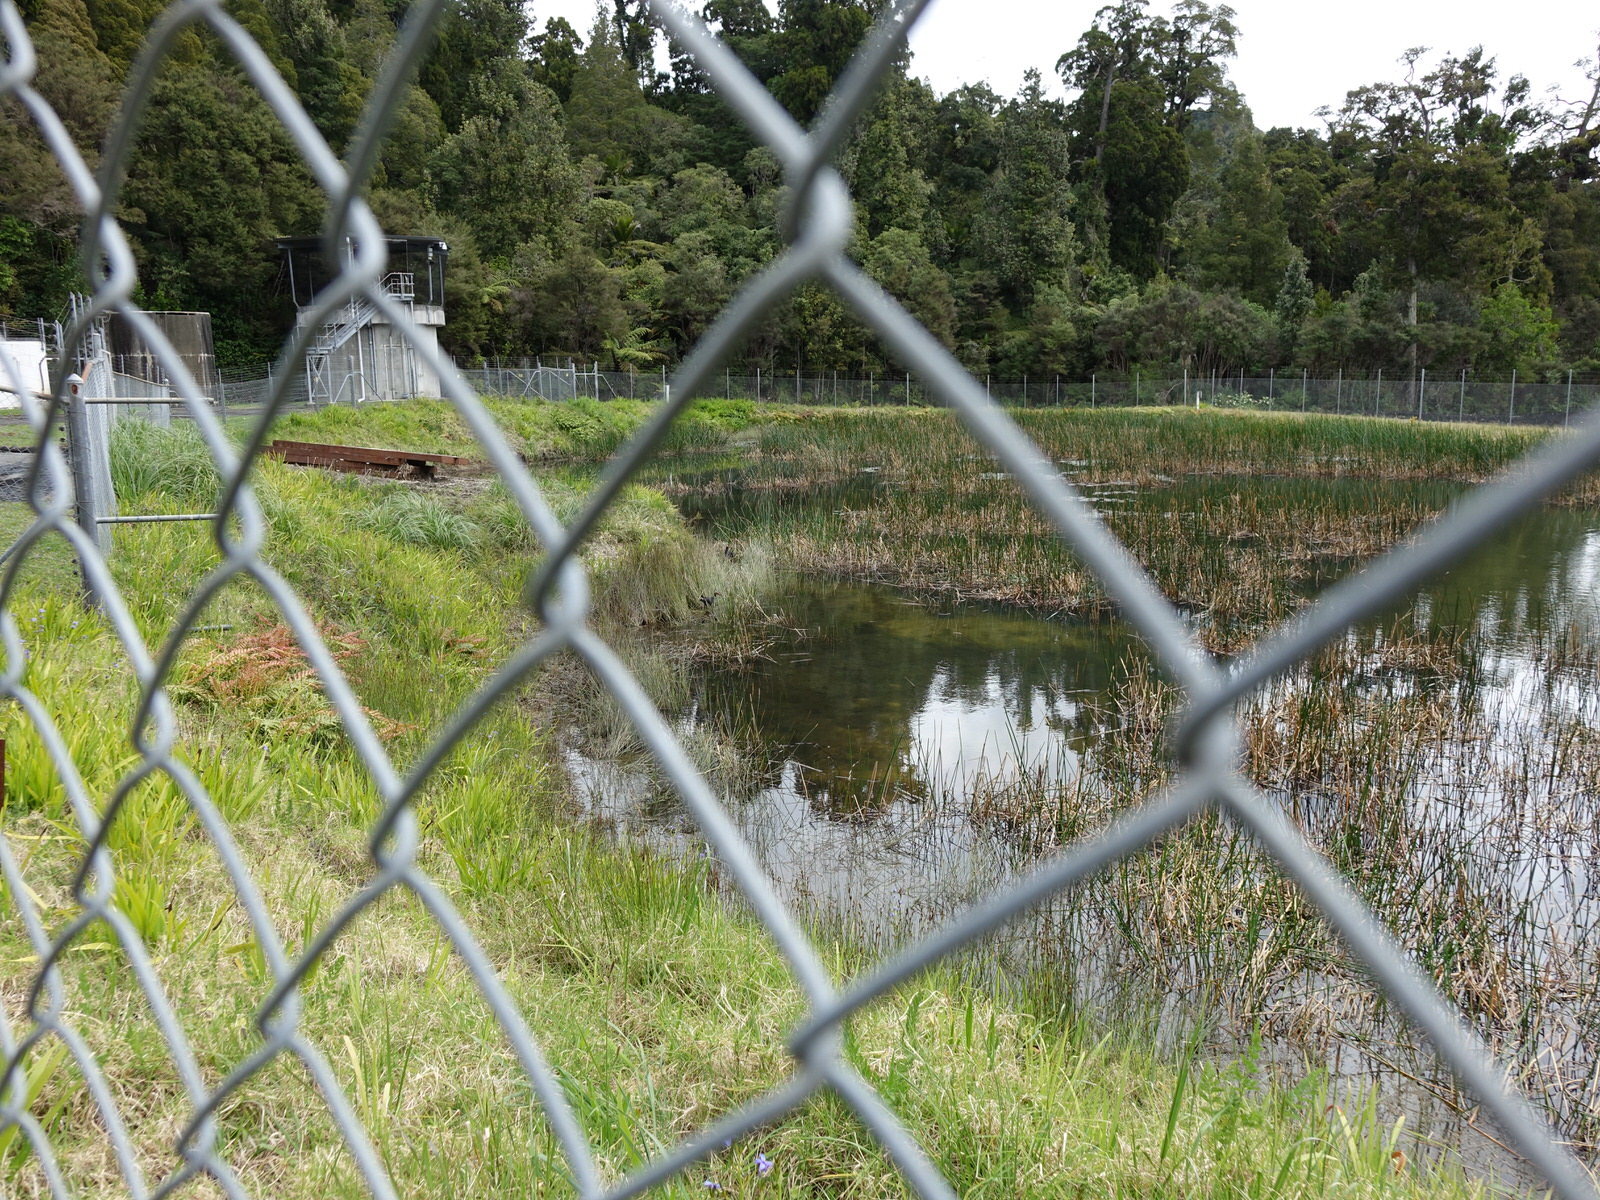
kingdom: Animalia
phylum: Chordata
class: Aves
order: Gruiformes
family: Rallidae
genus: Porphyrio
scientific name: Porphyrio melanotus
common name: Australasian swamphen
